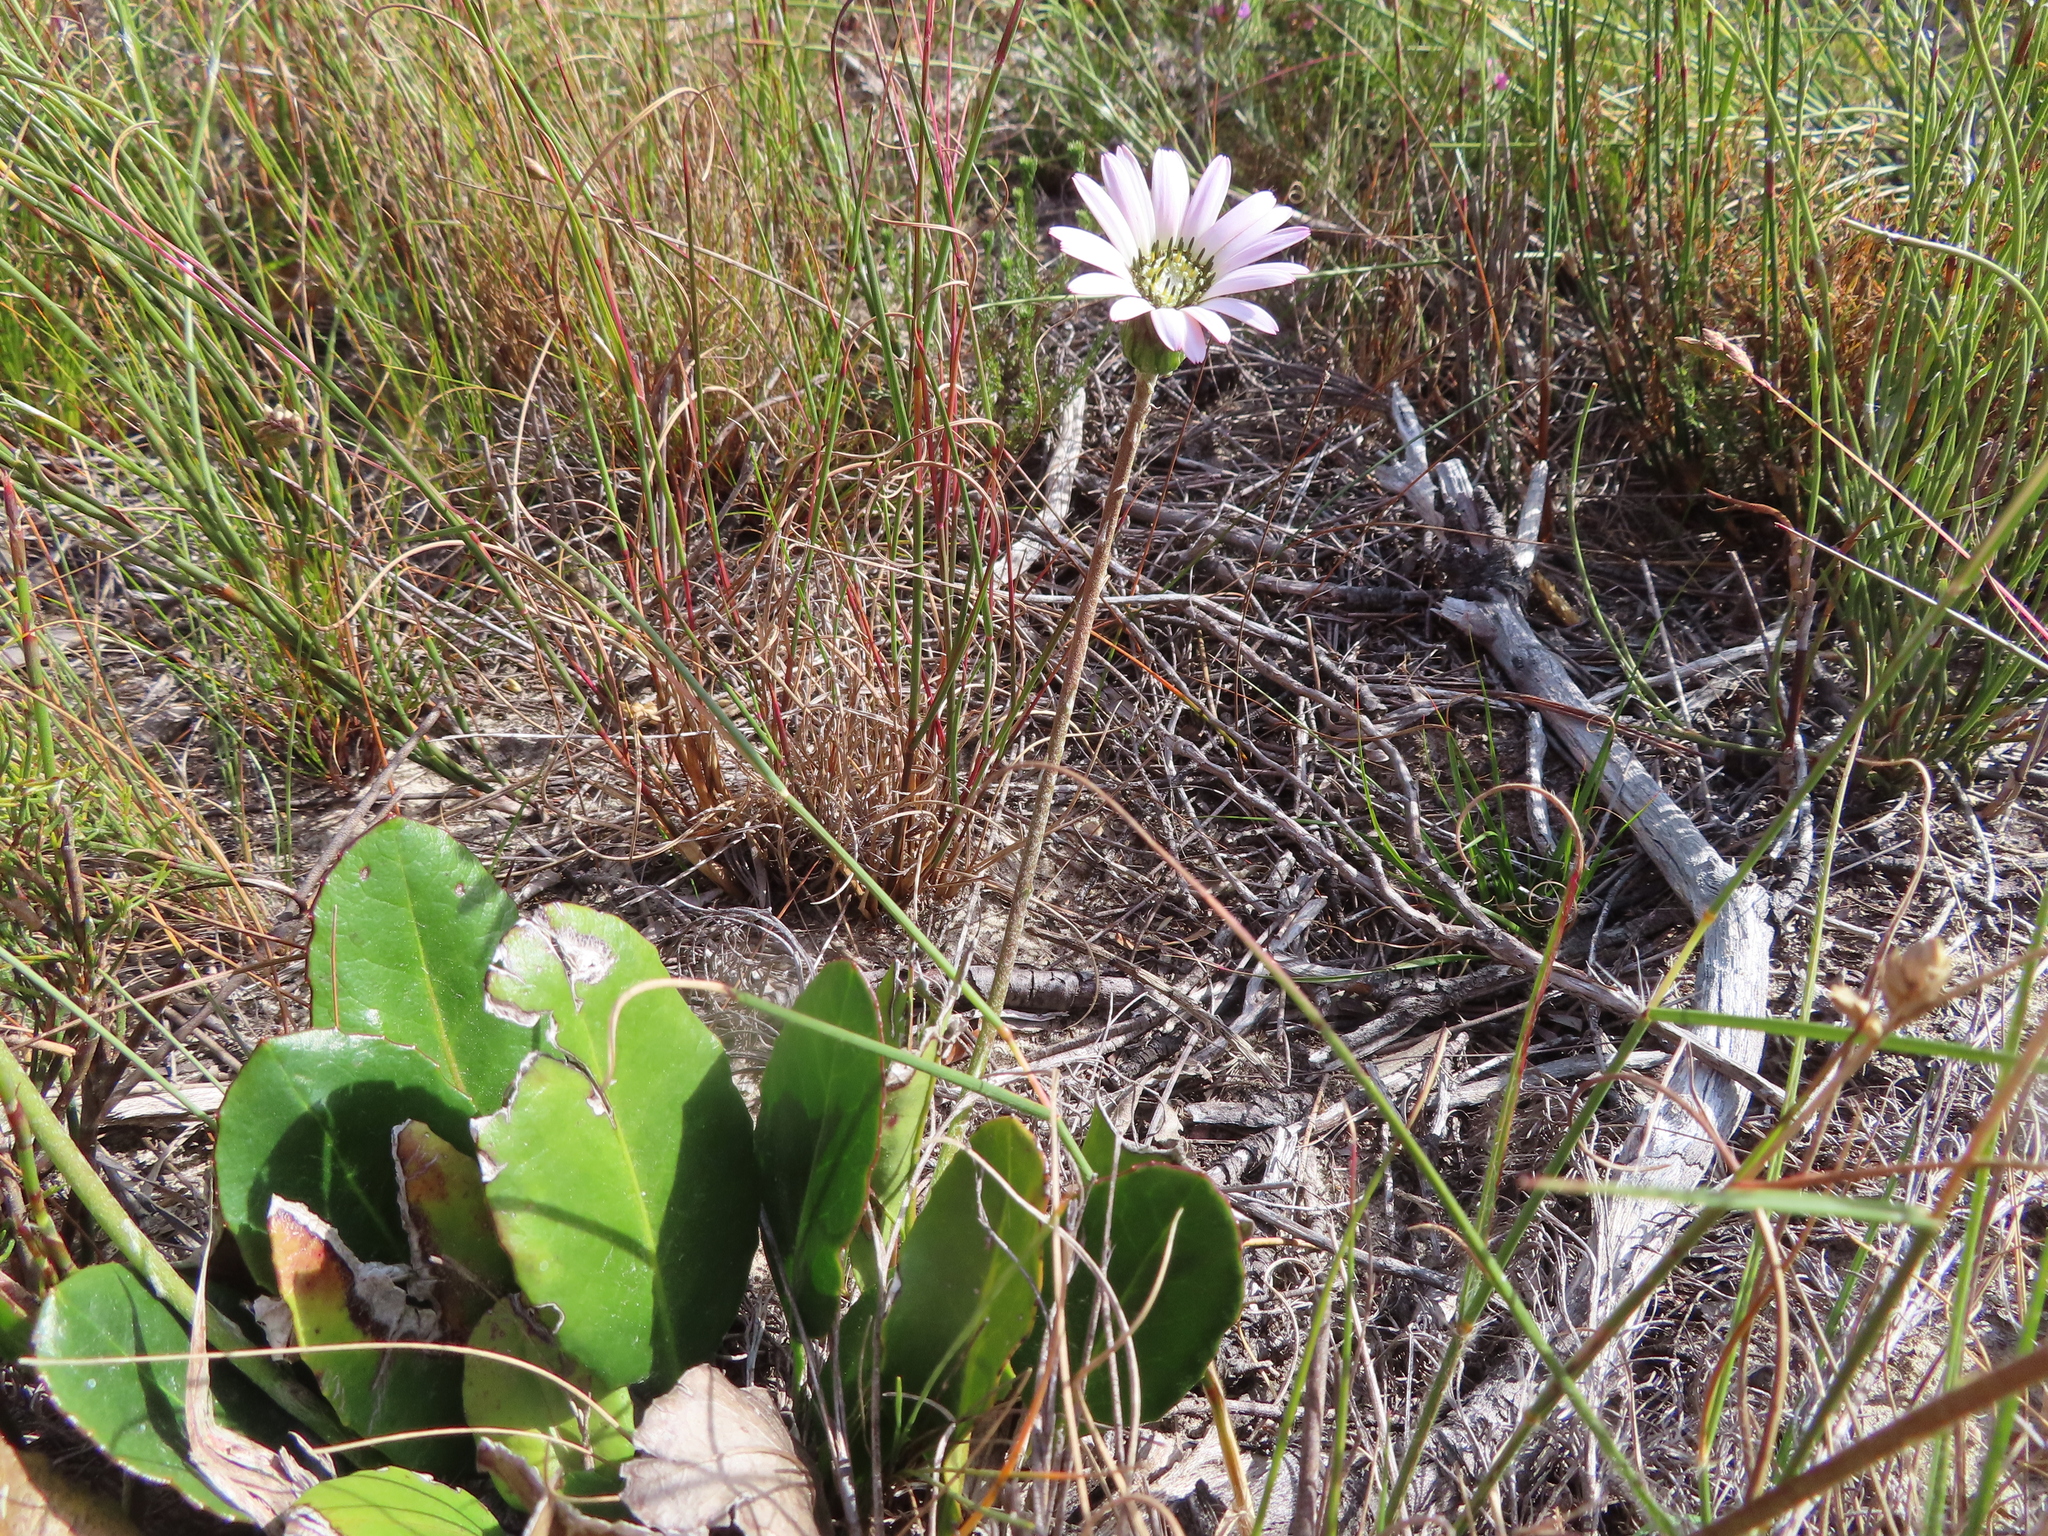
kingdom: Plantae
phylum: Tracheophyta
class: Magnoliopsida
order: Asterales
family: Asteraceae
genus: Gerbera
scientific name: Gerbera crocea
